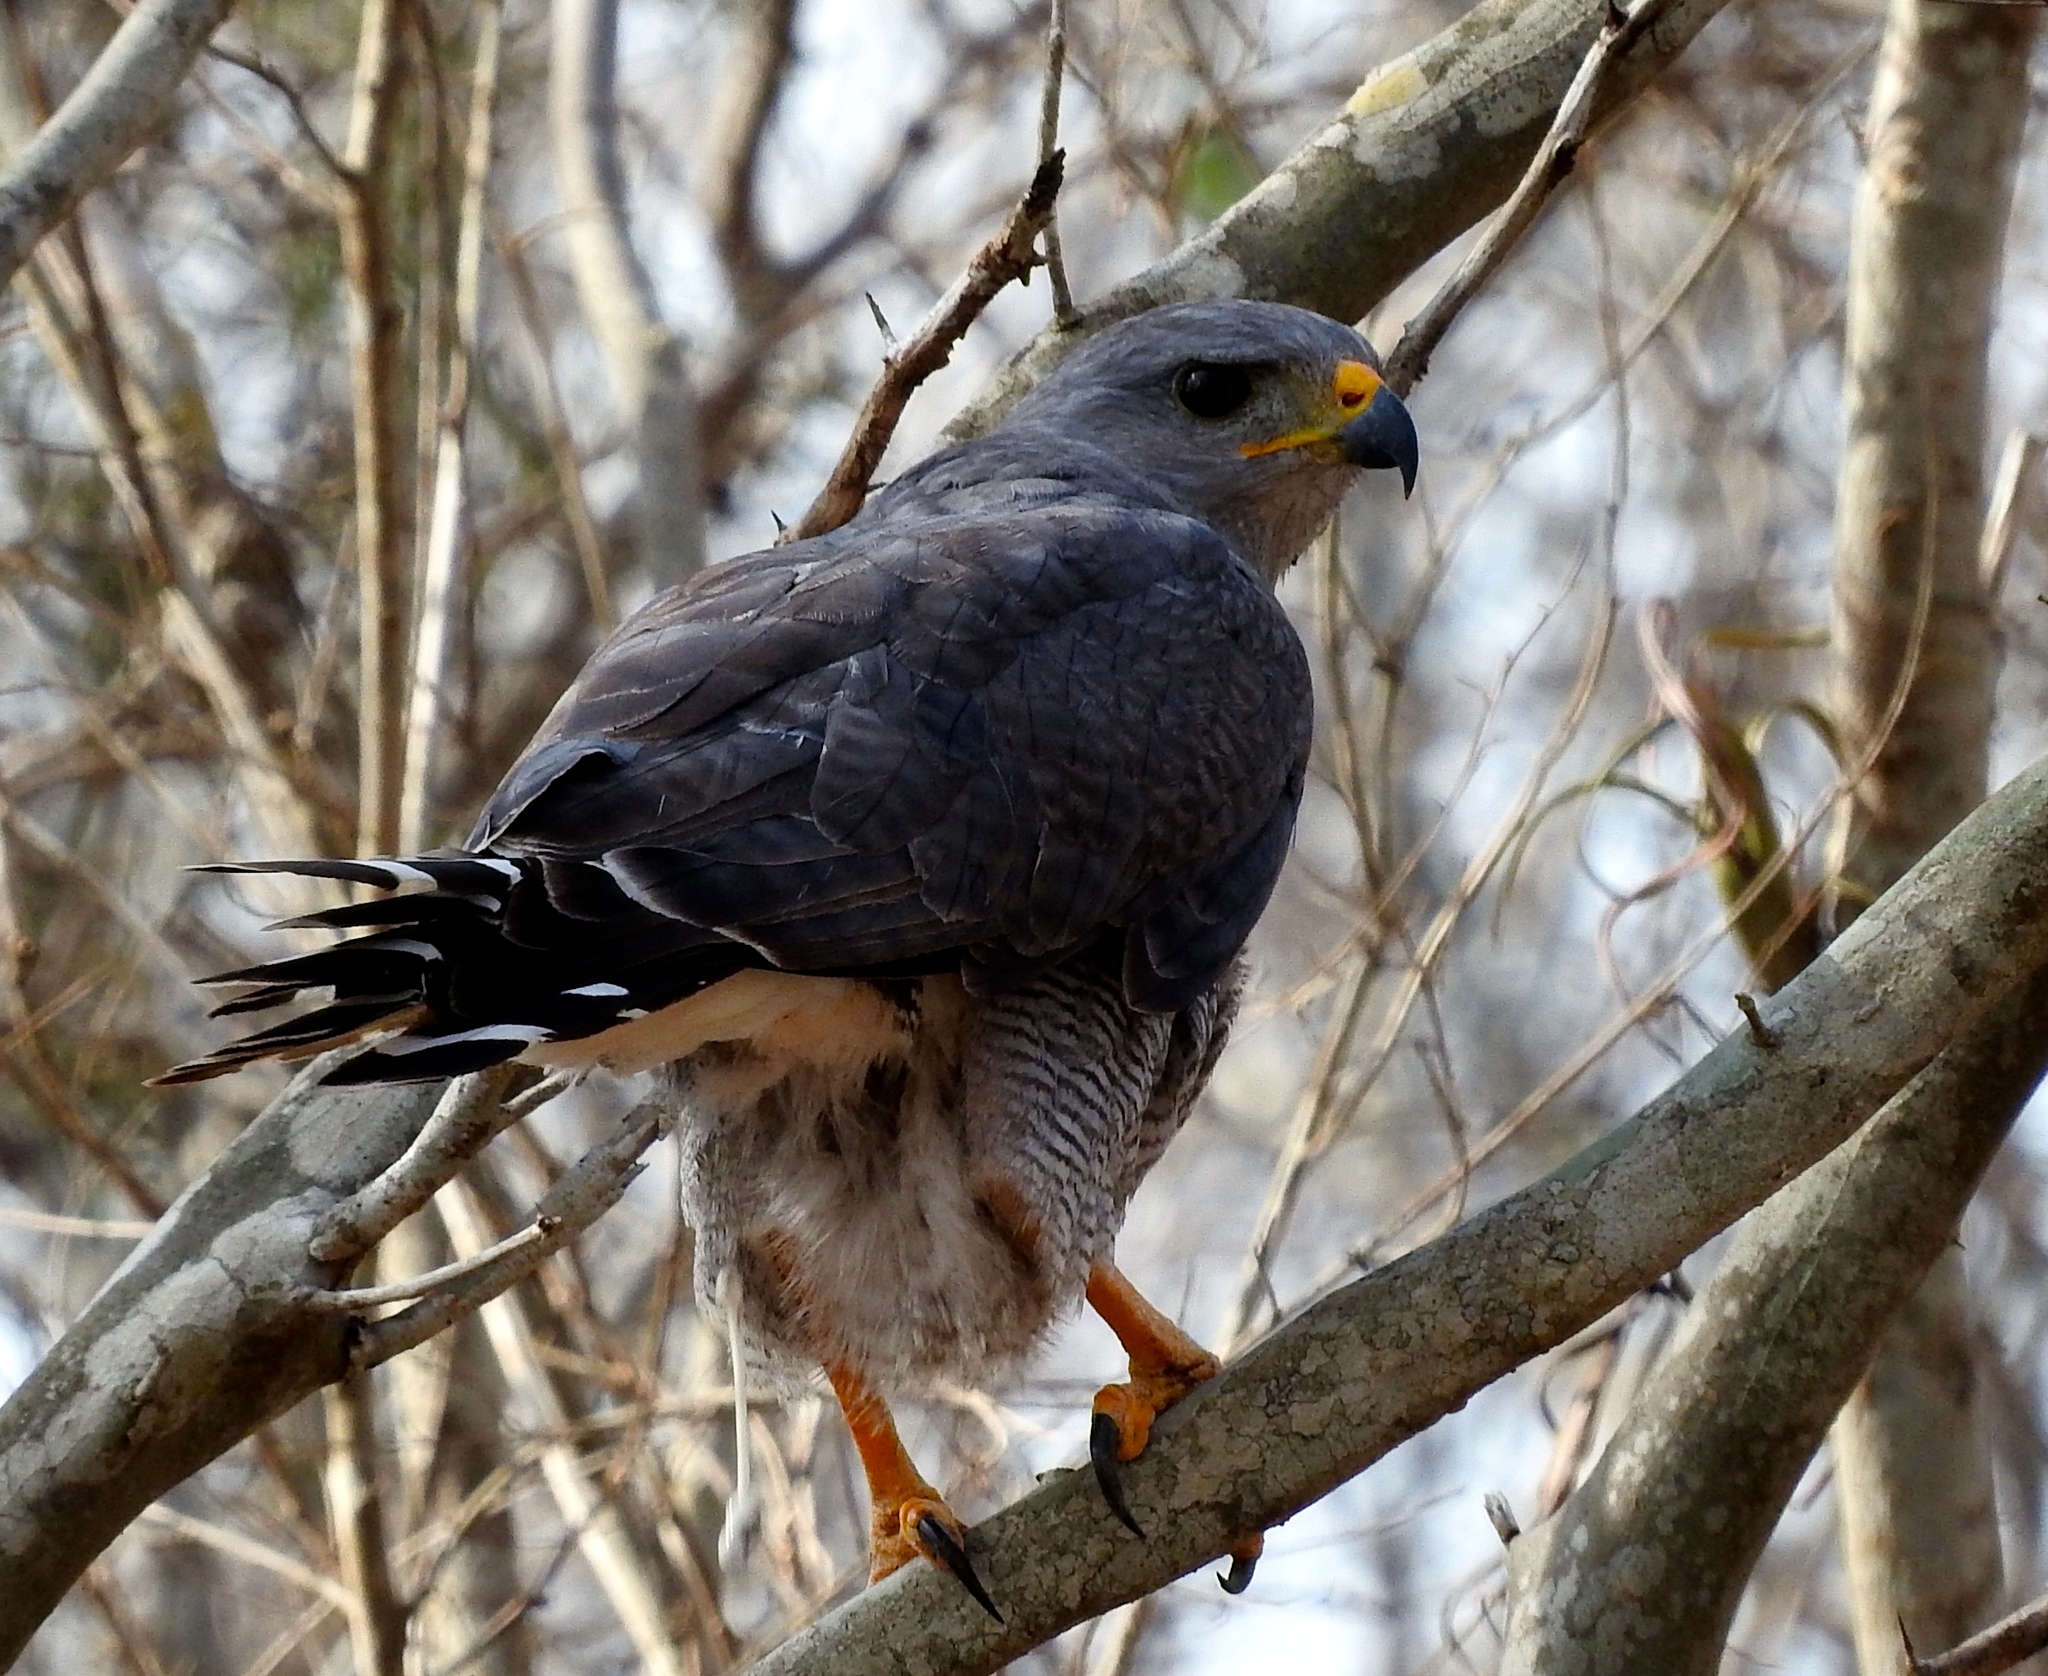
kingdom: Animalia
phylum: Chordata
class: Aves
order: Accipitriformes
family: Accipitridae
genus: Buteo
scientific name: Buteo nitidus
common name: Grey-lined hawk
